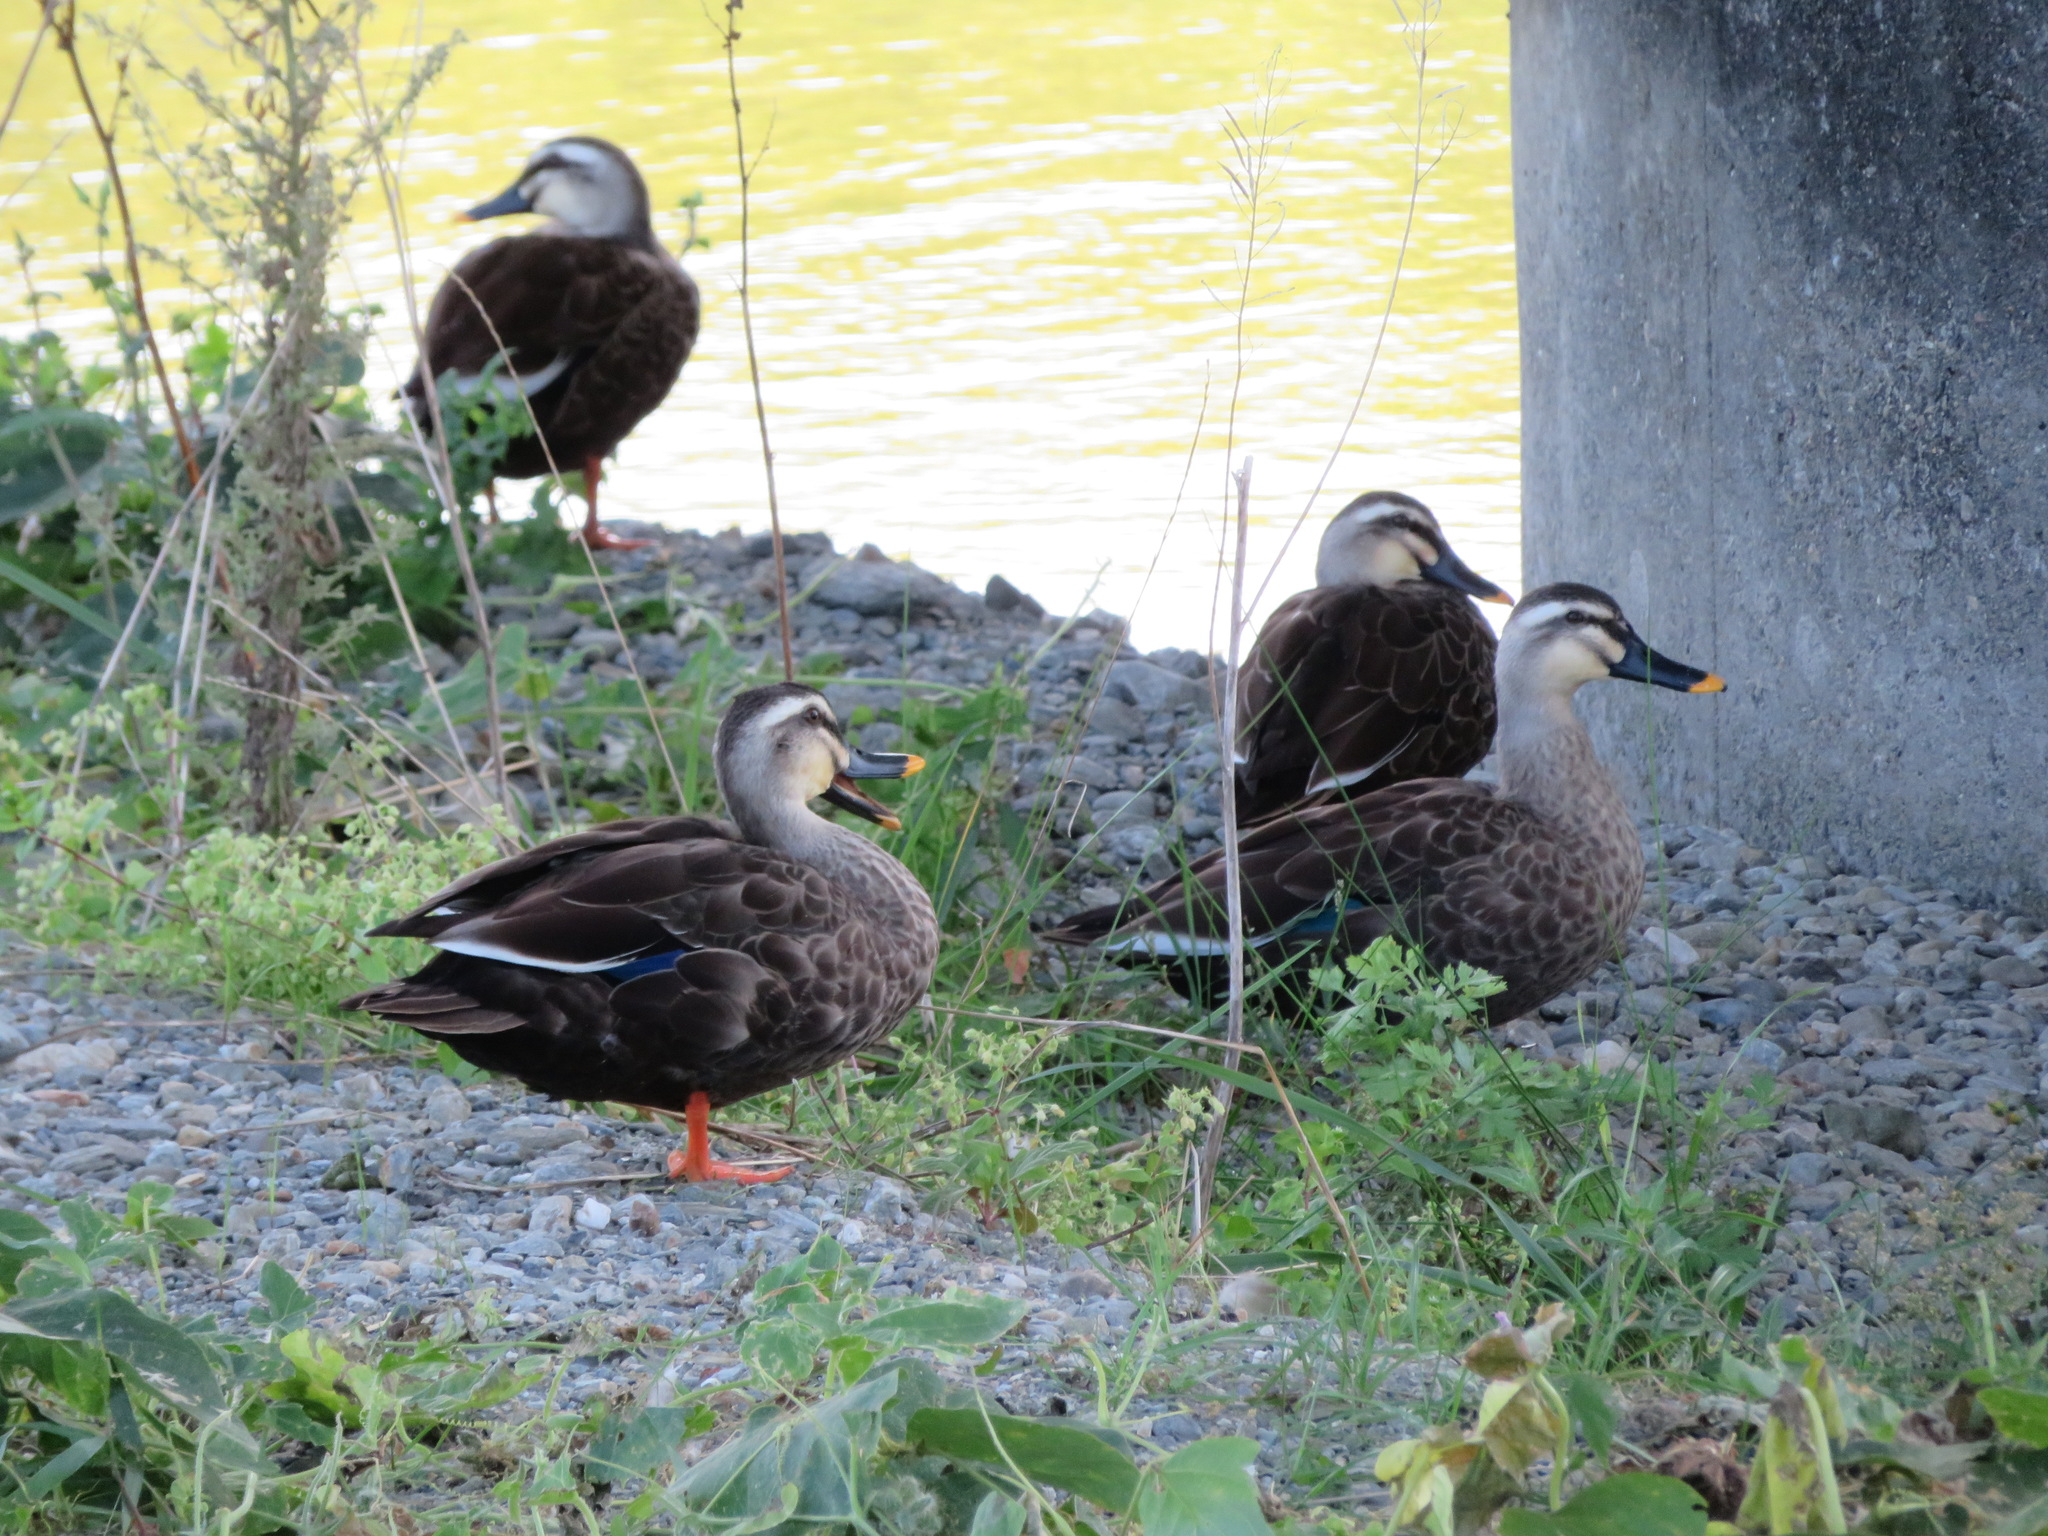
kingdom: Animalia
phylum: Chordata
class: Aves
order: Anseriformes
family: Anatidae
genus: Anas
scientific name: Anas zonorhyncha
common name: Eastern spot-billed duck
